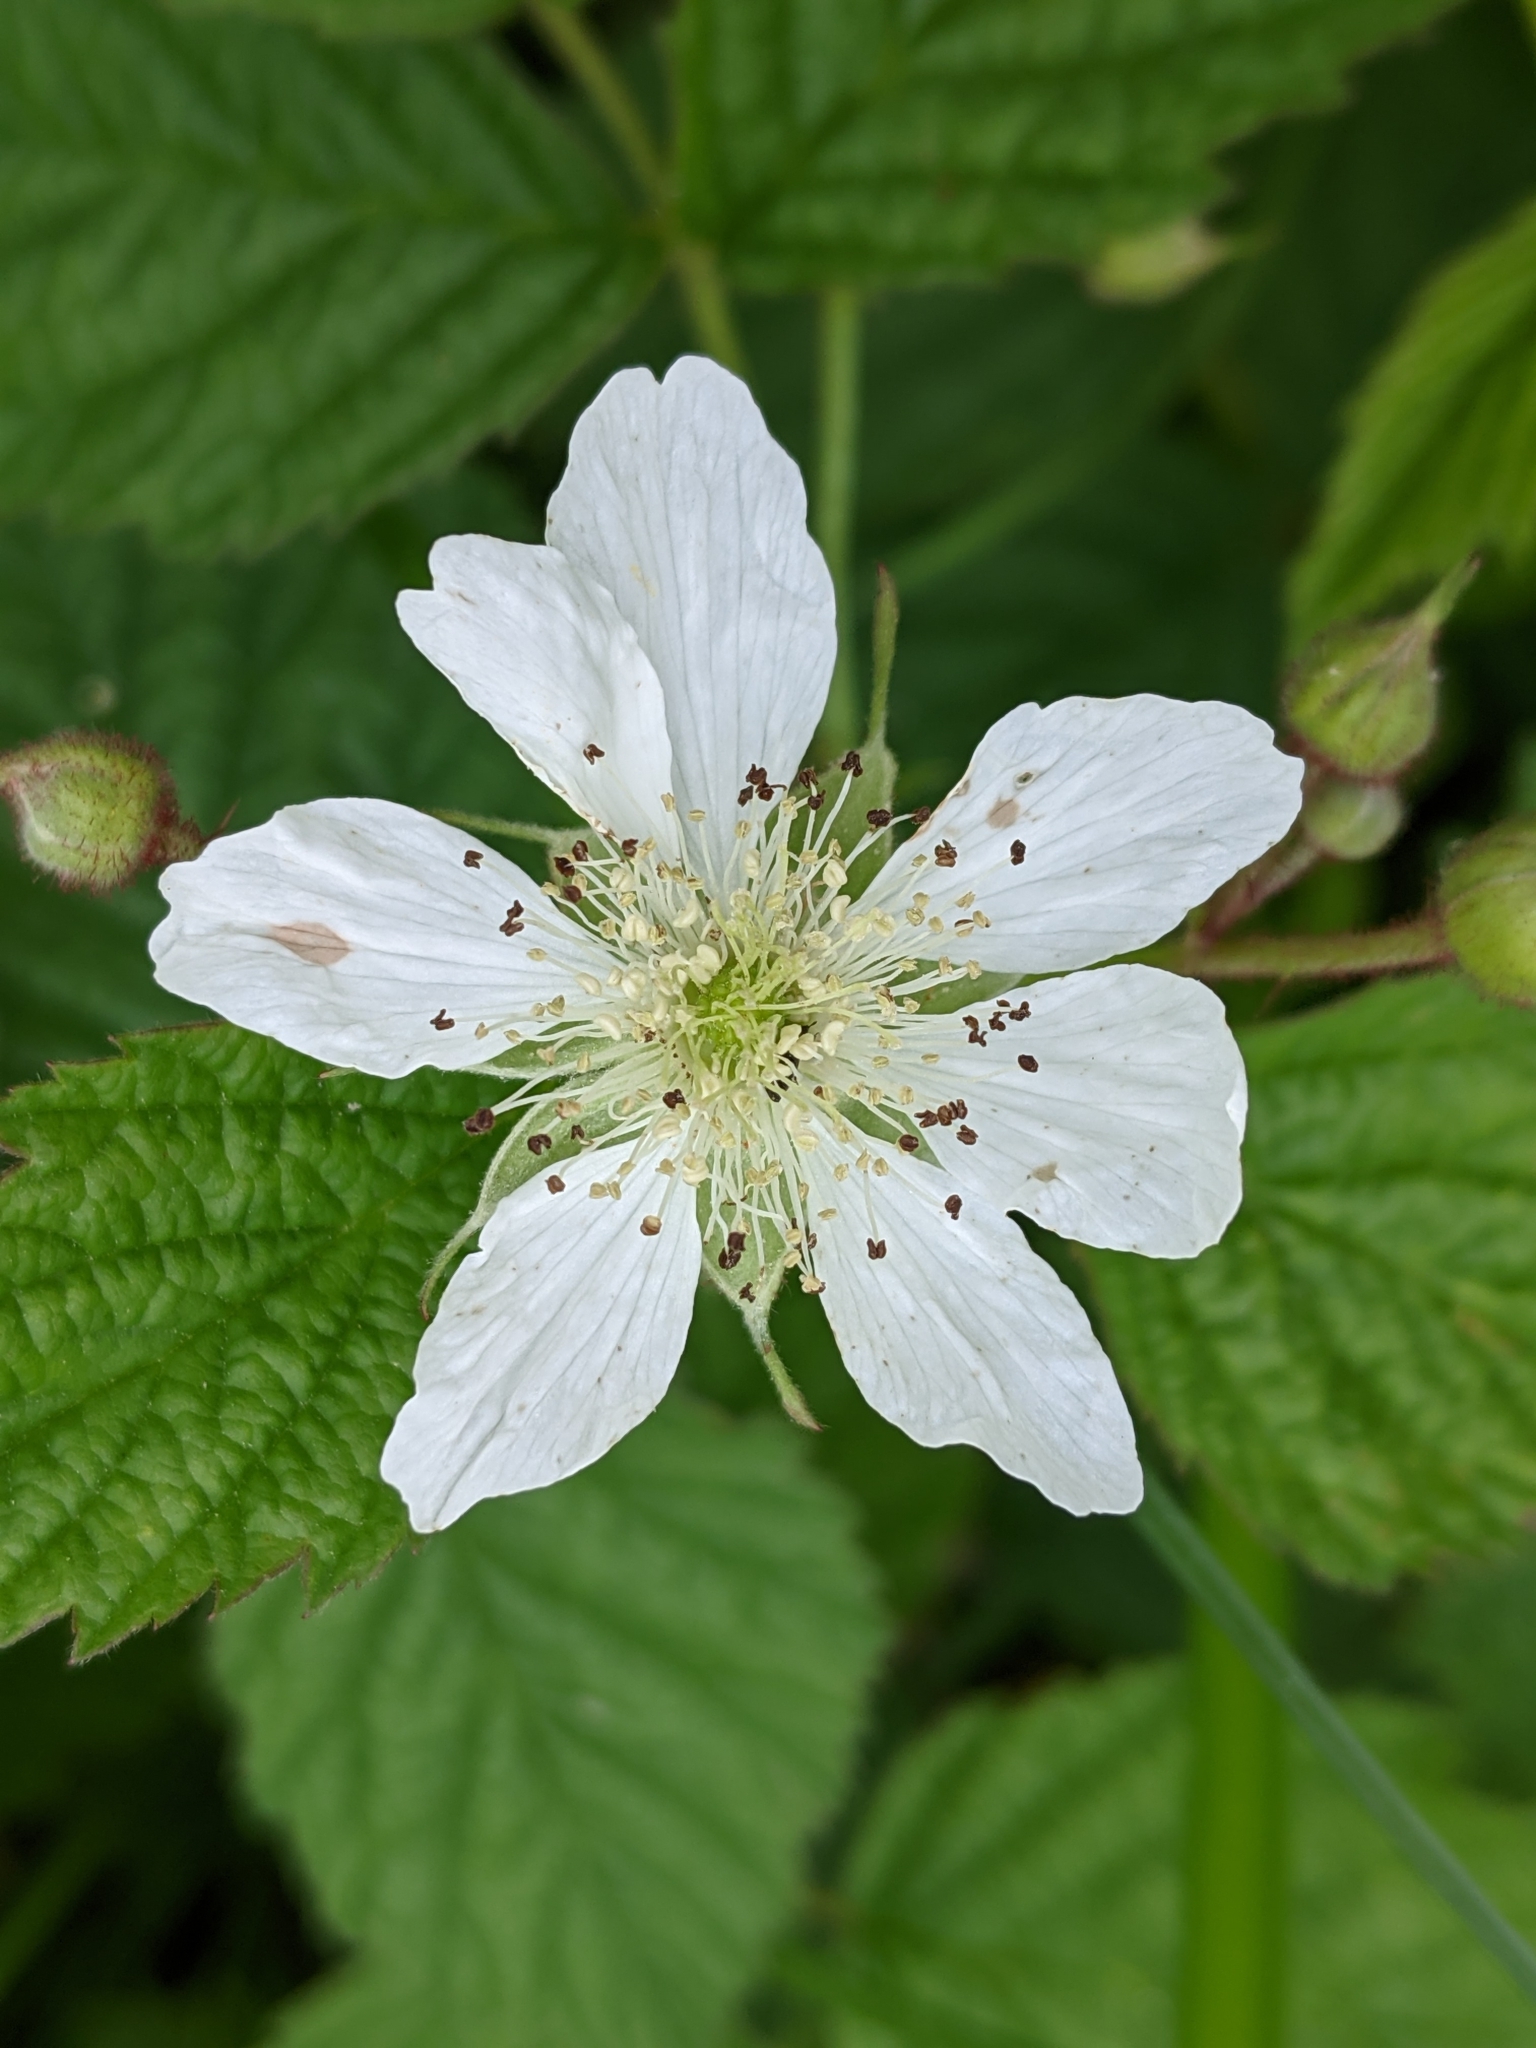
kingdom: Plantae
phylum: Tracheophyta
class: Magnoliopsida
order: Rosales
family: Rosaceae
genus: Rubus
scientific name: Rubus caesius
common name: Dewberry
